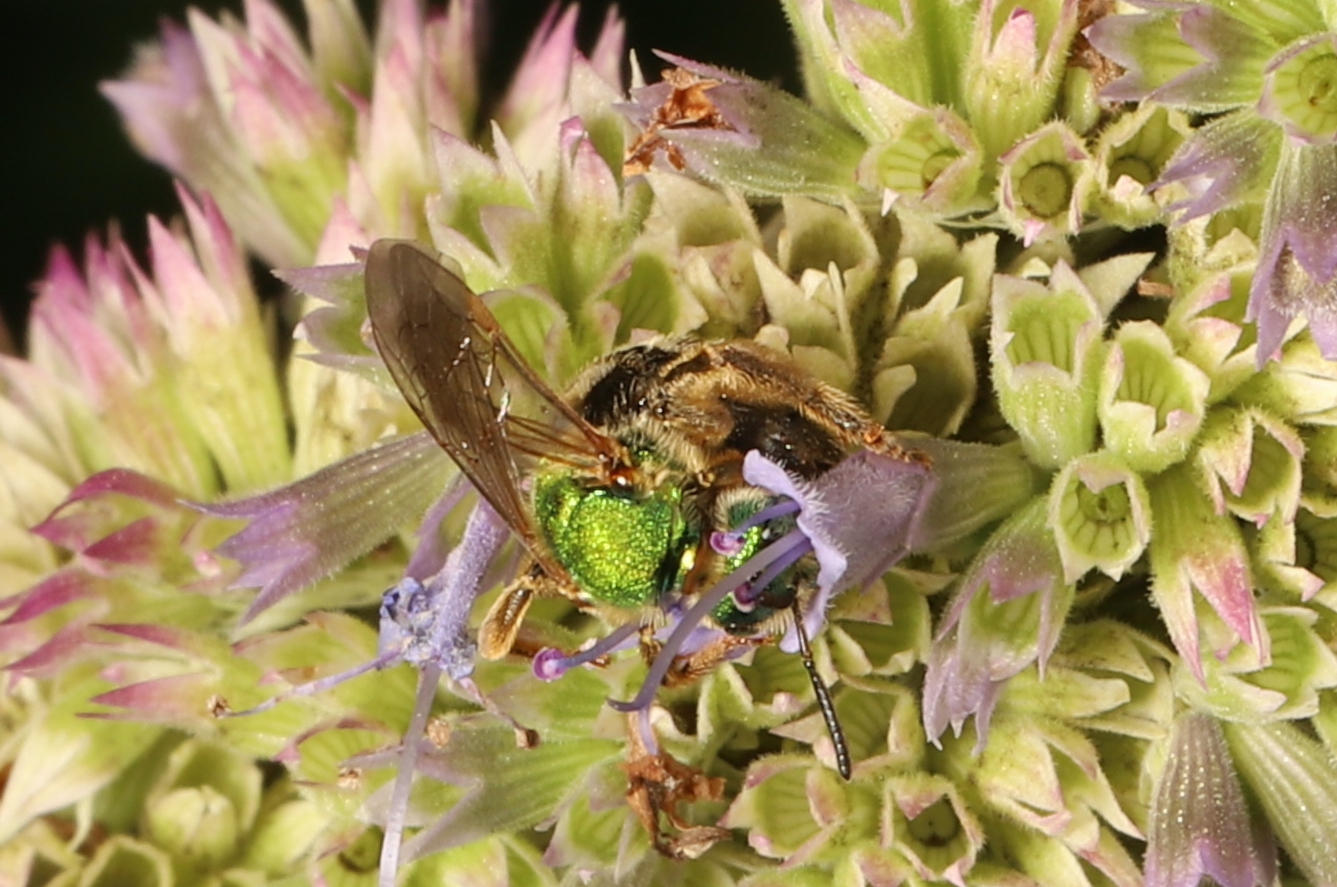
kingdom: Animalia
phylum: Arthropoda
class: Insecta
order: Hymenoptera
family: Halictidae
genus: Agapostemon
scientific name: Agapostemon virescens
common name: Bicolored striped sweat bee
